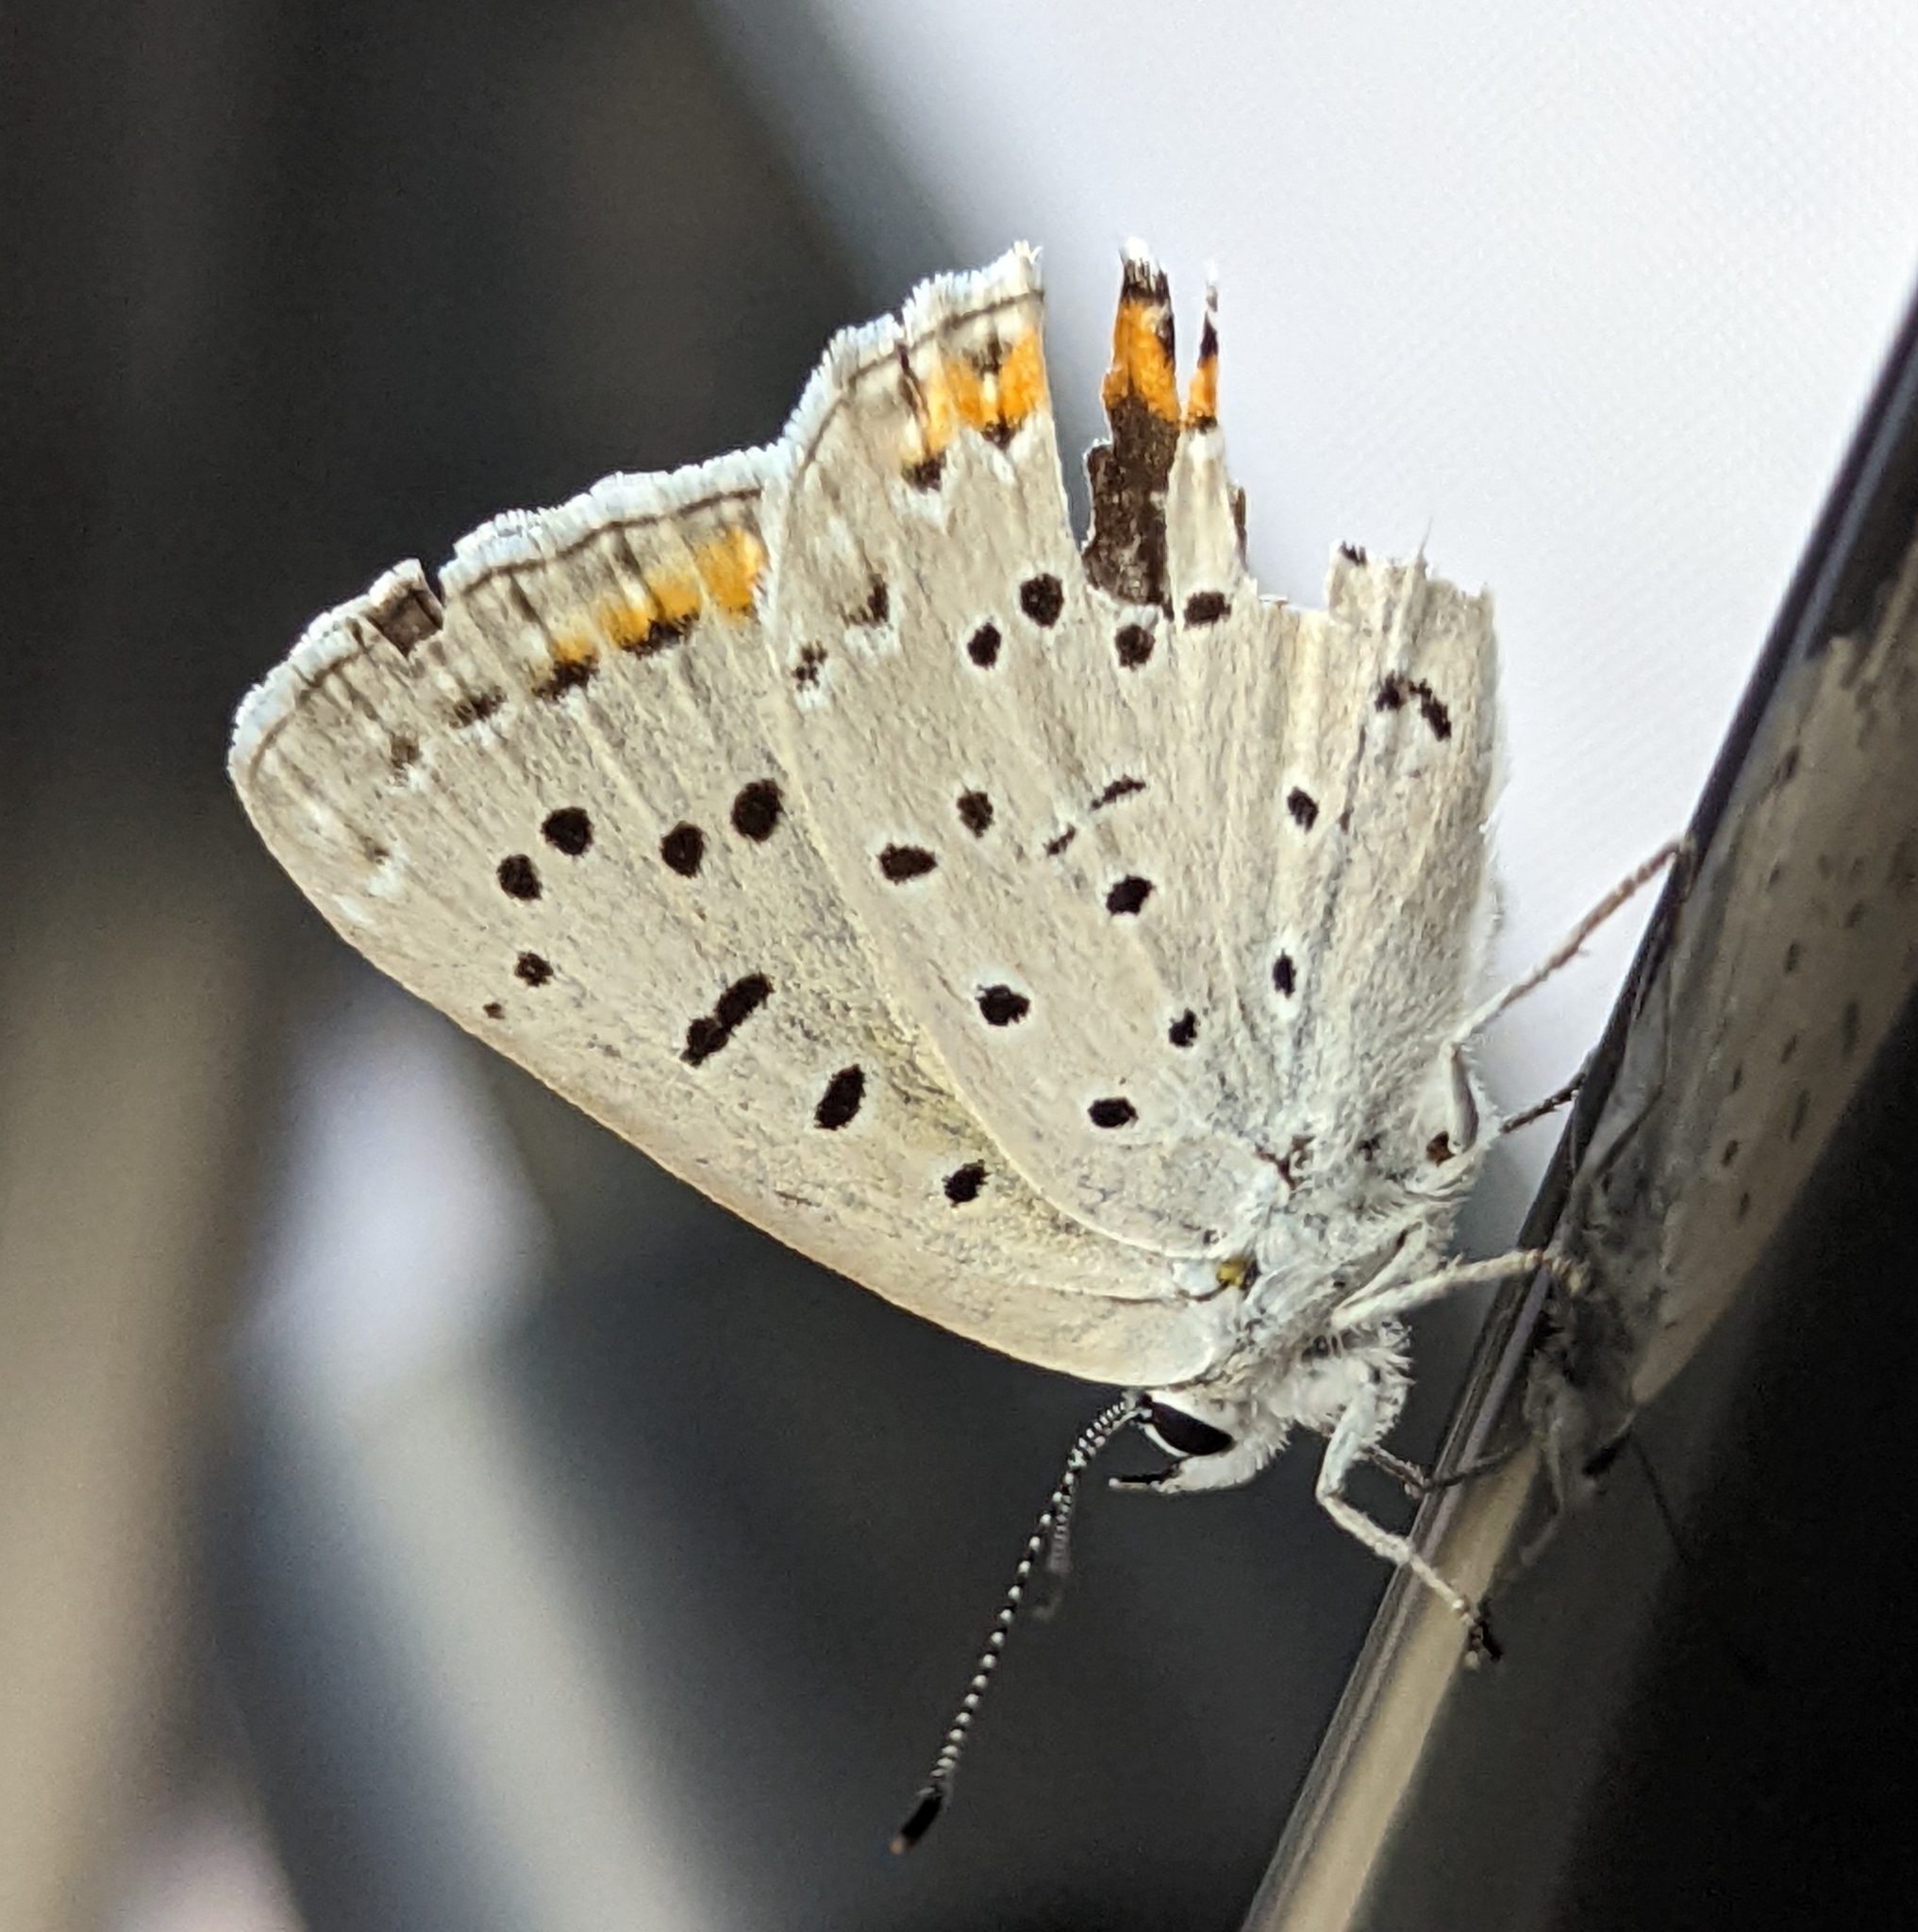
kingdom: Animalia
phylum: Arthropoda
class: Insecta
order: Lepidoptera
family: Lycaenidae
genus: Tharsalea
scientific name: Tharsalea dione
